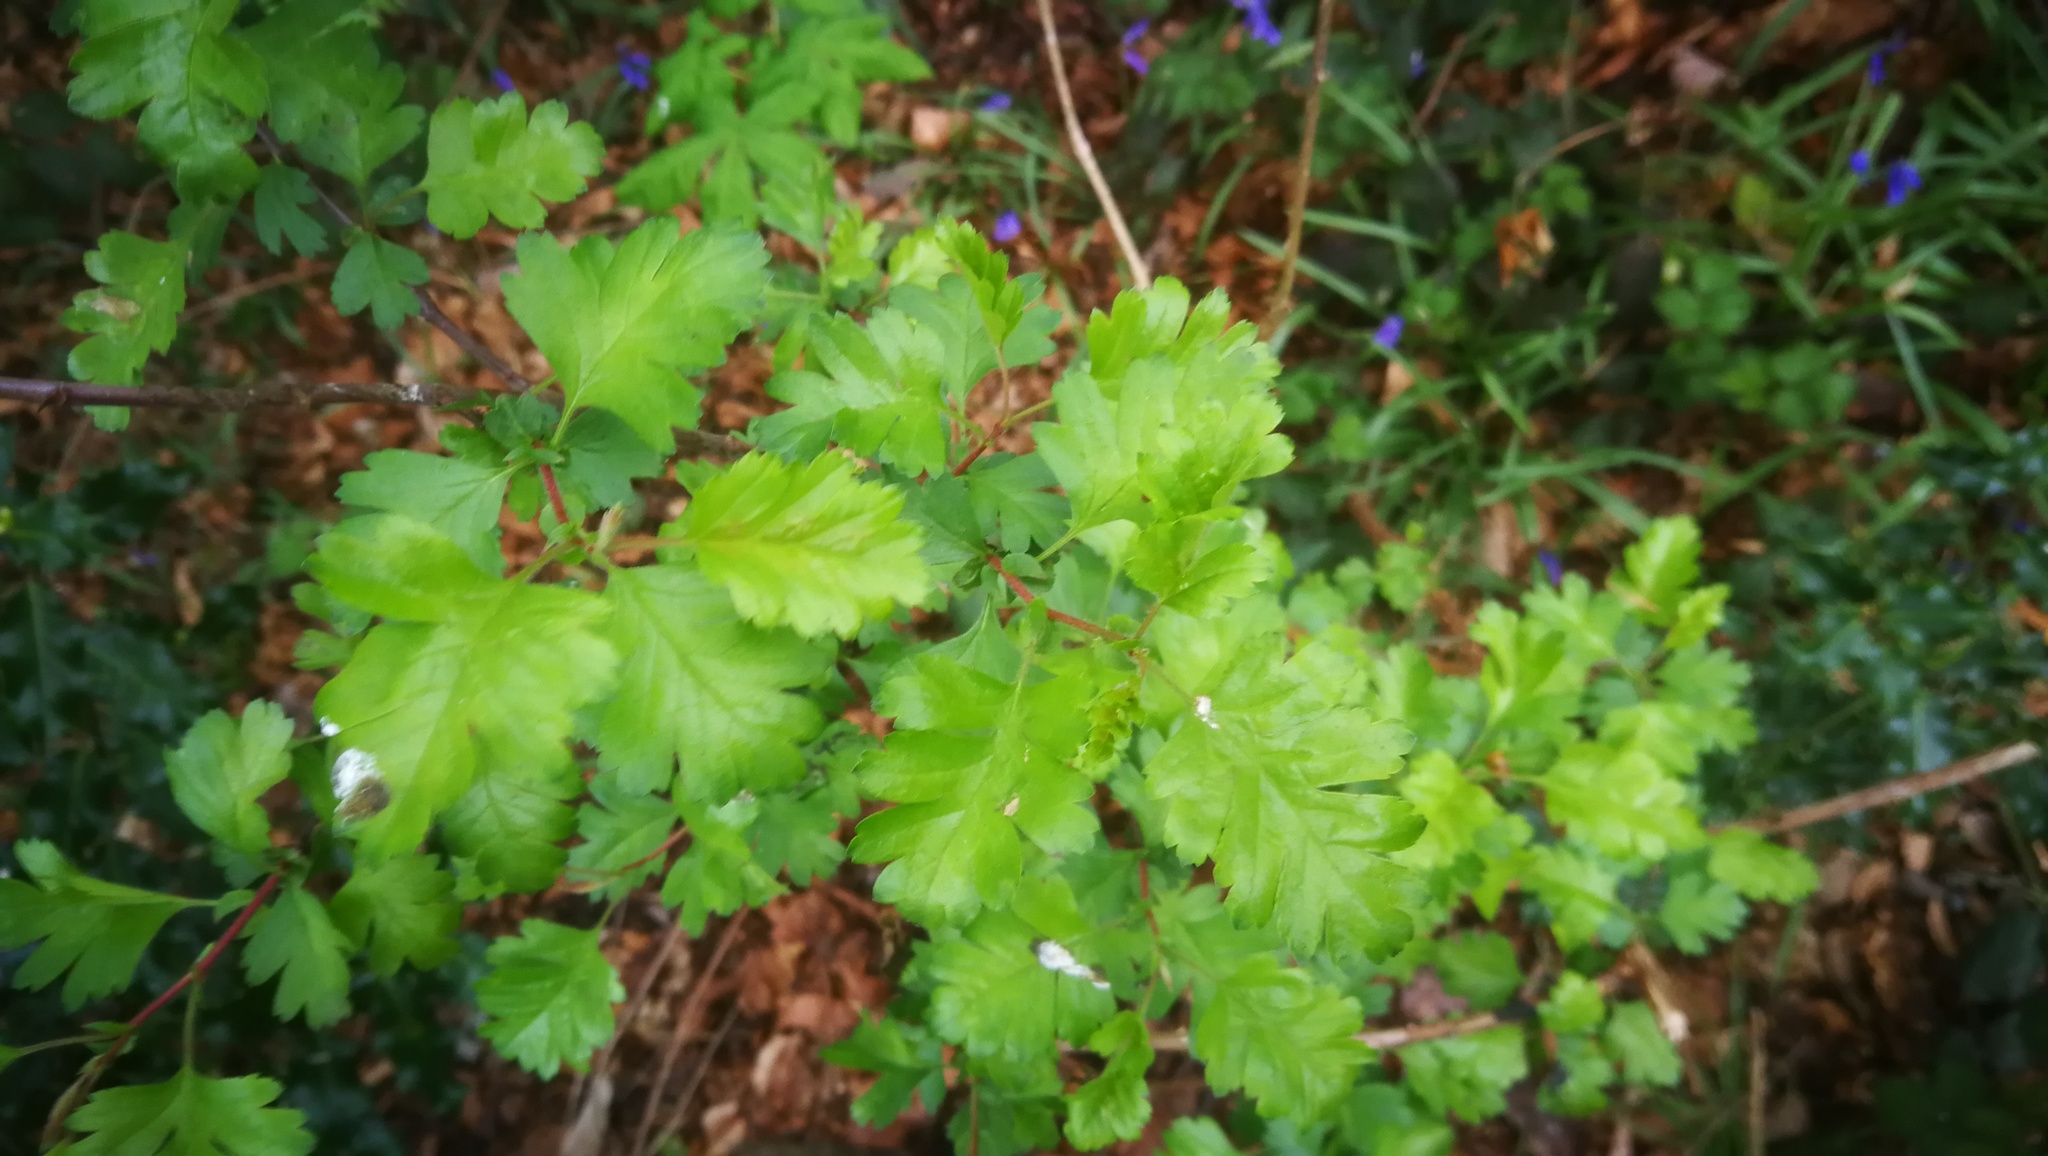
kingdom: Plantae
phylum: Tracheophyta
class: Magnoliopsida
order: Rosales
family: Rosaceae
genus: Crataegus
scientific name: Crataegus monogyna
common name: Hawthorn
